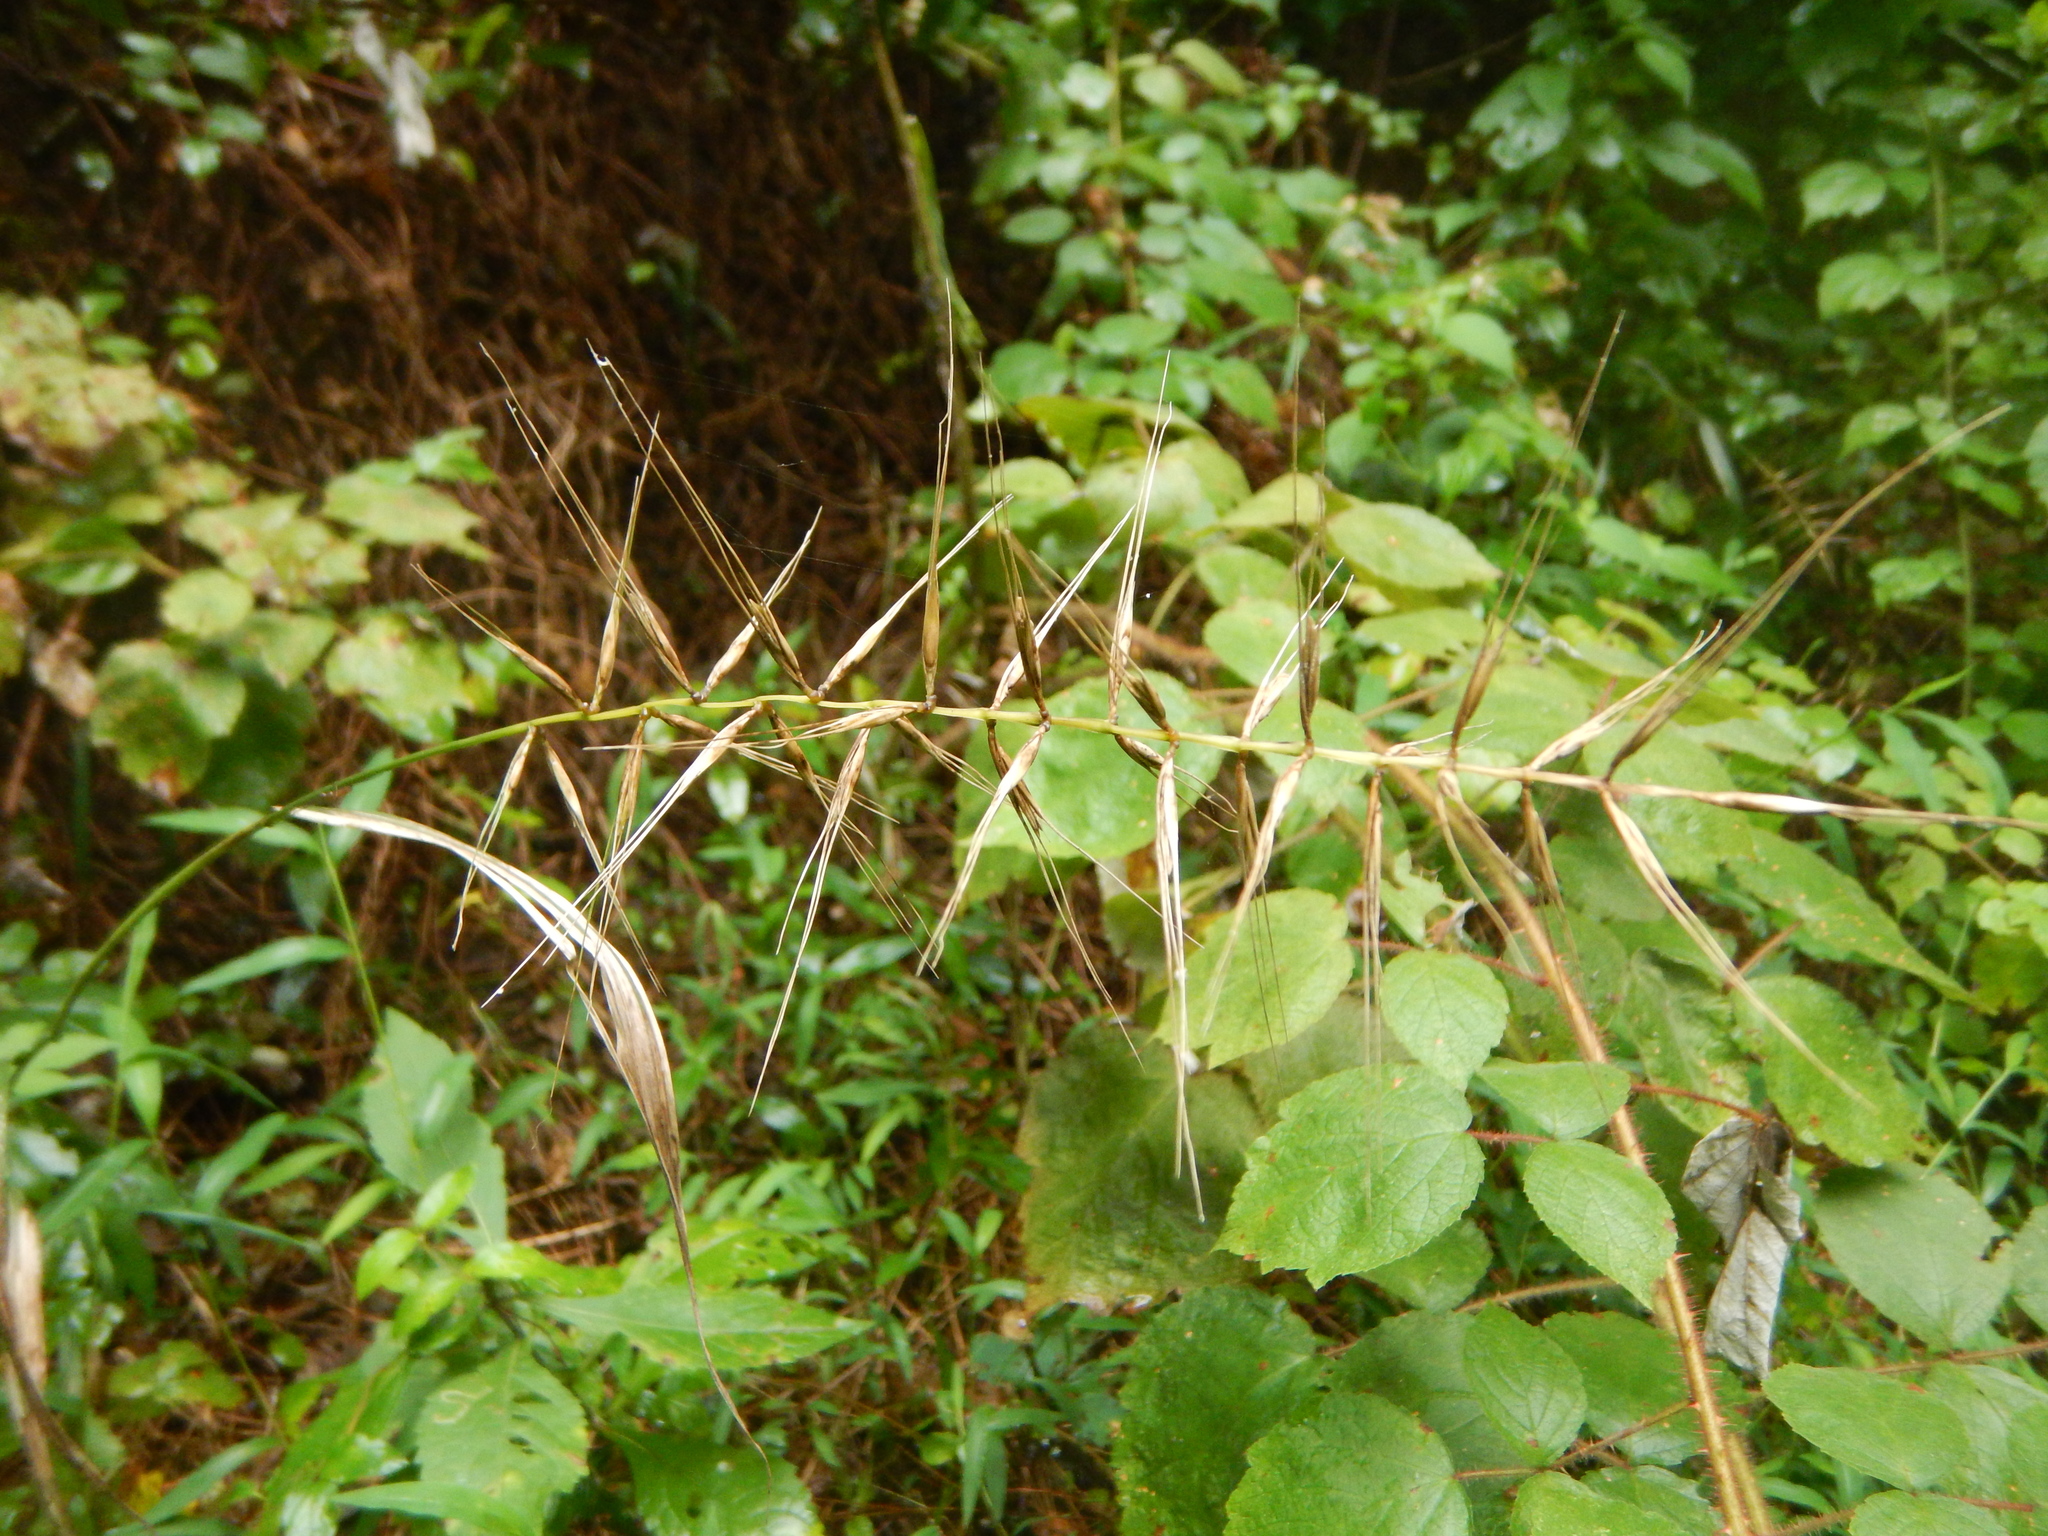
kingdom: Plantae
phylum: Tracheophyta
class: Liliopsida
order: Poales
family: Poaceae
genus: Elymus
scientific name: Elymus hystrix
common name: Bottlebrush grass
